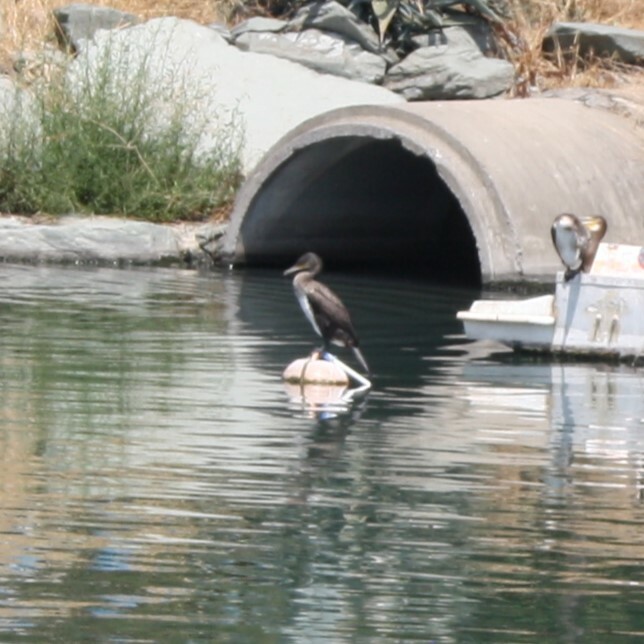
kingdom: Animalia
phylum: Chordata
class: Aves
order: Suliformes
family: Phalacrocoracidae
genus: Phalacrocorax
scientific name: Phalacrocorax carbo
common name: Great cormorant
